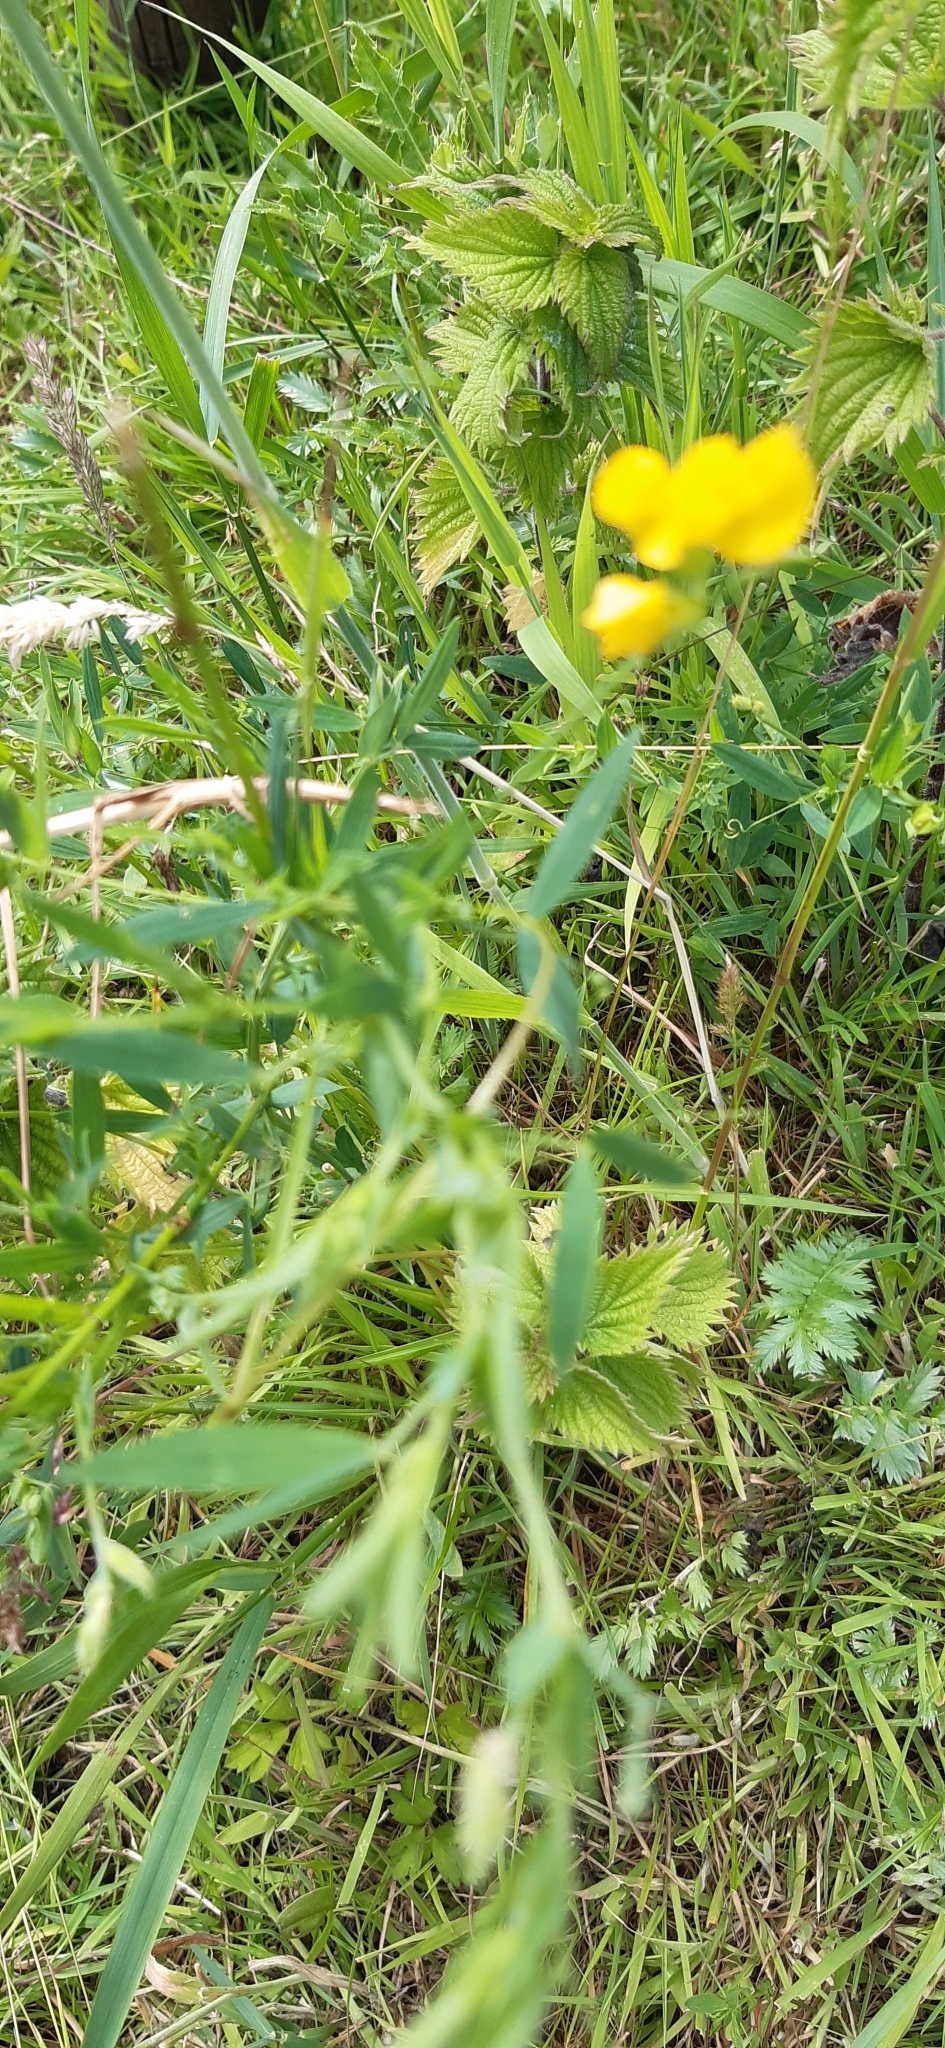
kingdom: Plantae
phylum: Tracheophyta
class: Magnoliopsida
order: Fabales
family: Fabaceae
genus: Lathyrus
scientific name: Lathyrus pratensis
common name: Meadow vetchling
